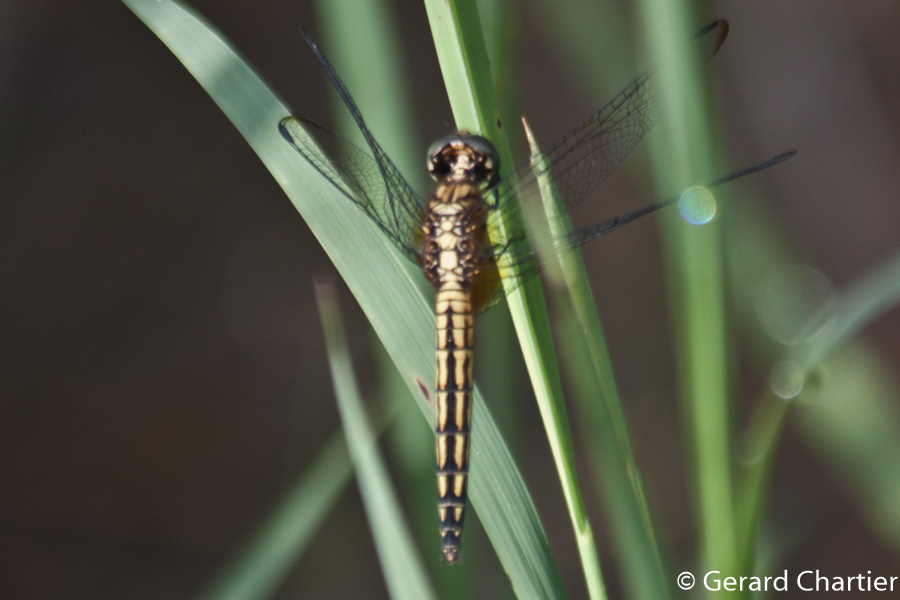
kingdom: Animalia
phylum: Arthropoda
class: Insecta
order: Odonata
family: Libellulidae
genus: Indothemis
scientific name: Indothemis limbata
